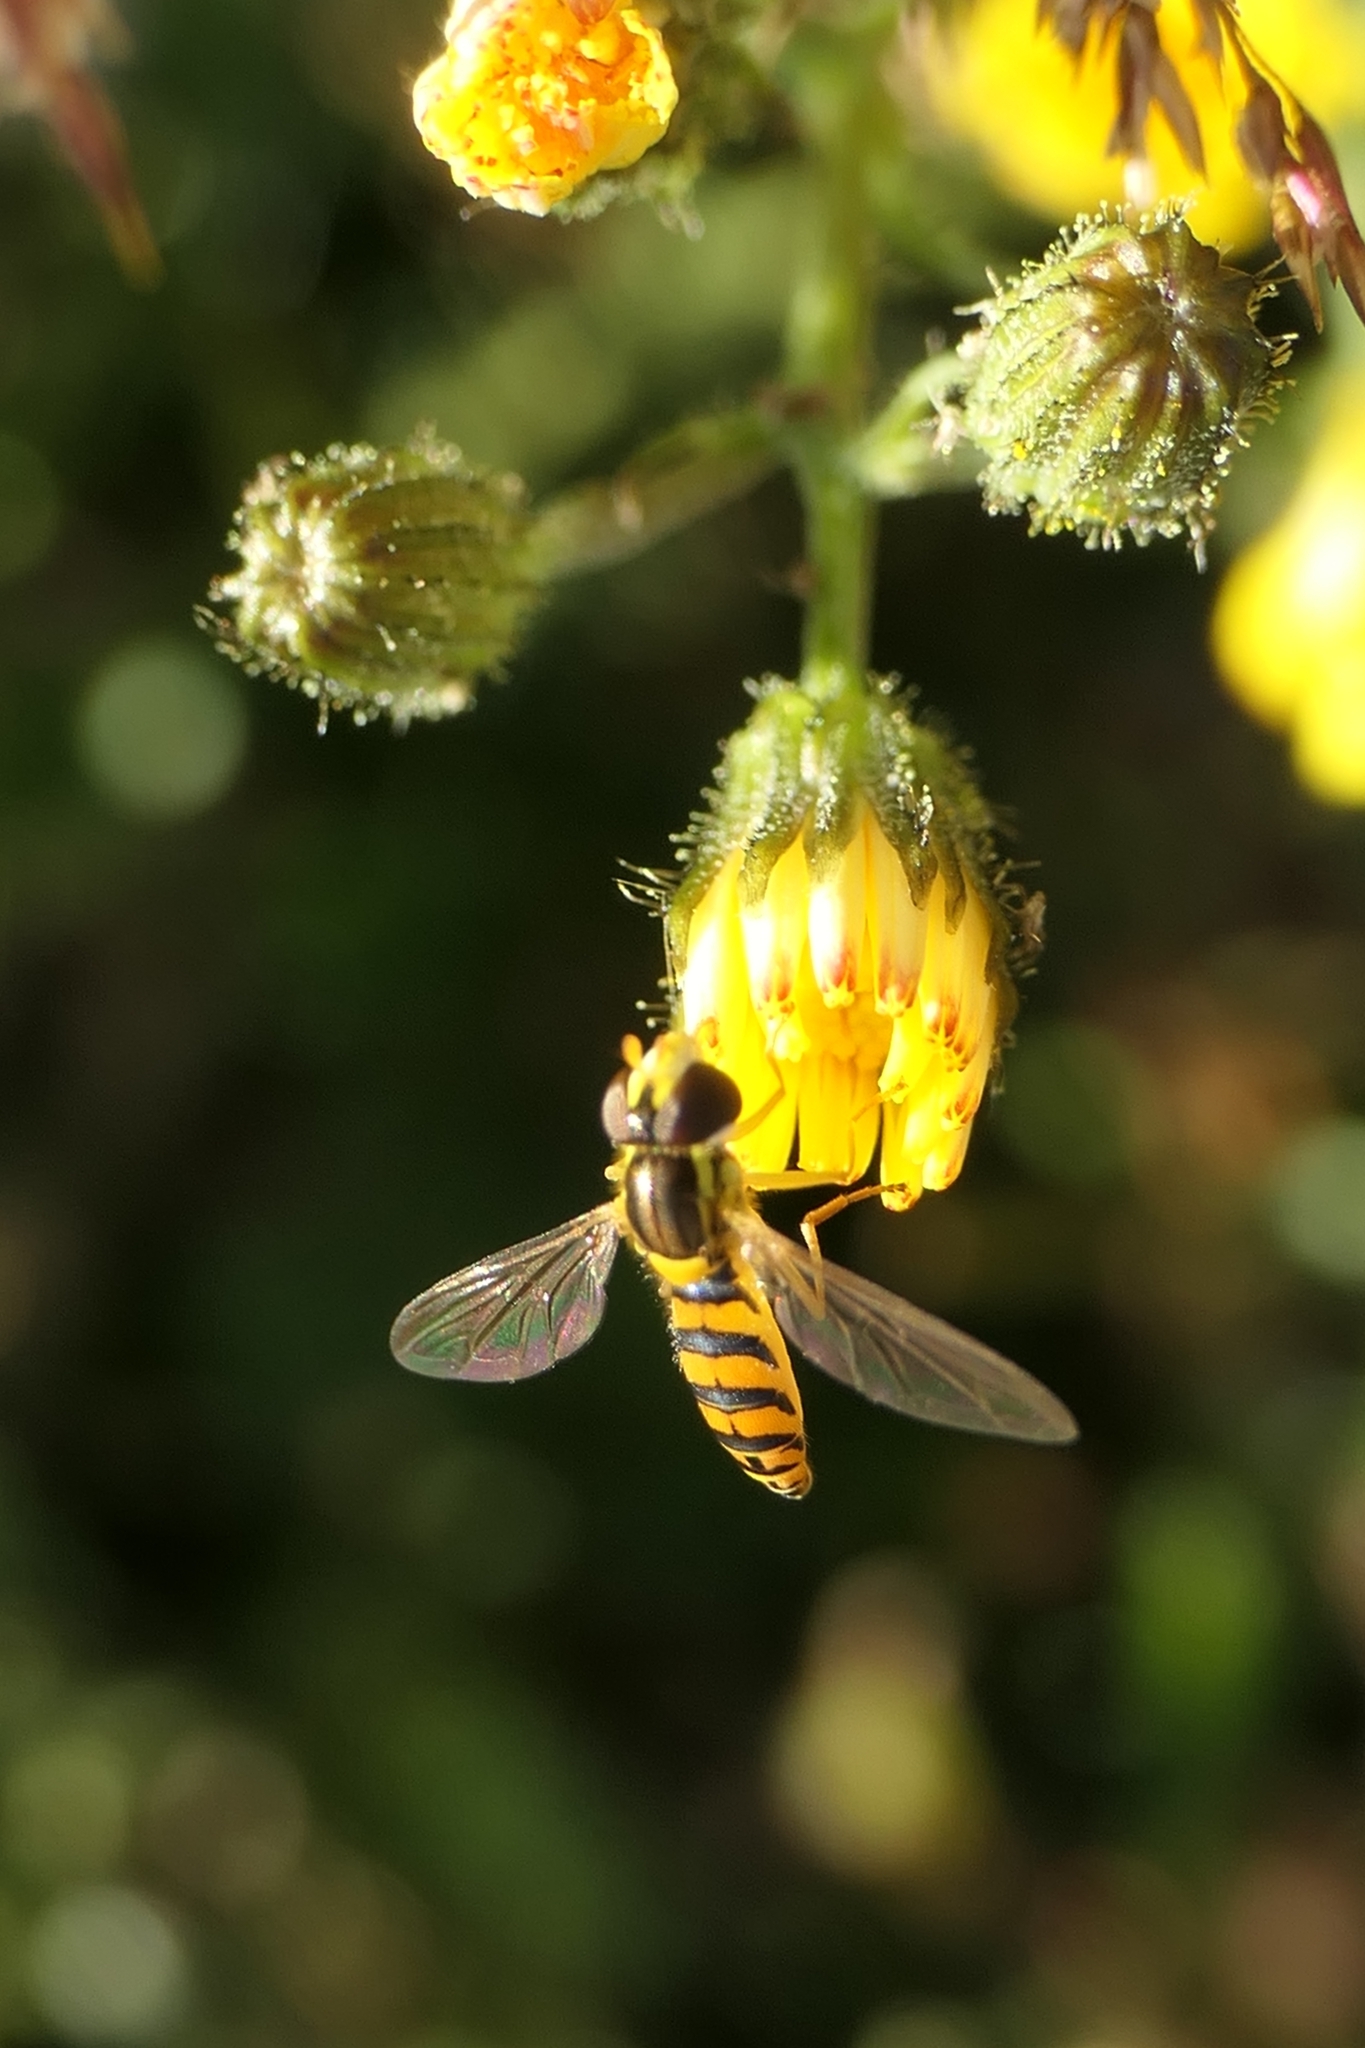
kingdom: Animalia
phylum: Arthropoda
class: Insecta
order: Diptera
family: Syrphidae
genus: Sphaerophoria
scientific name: Sphaerophoria macrogaster
